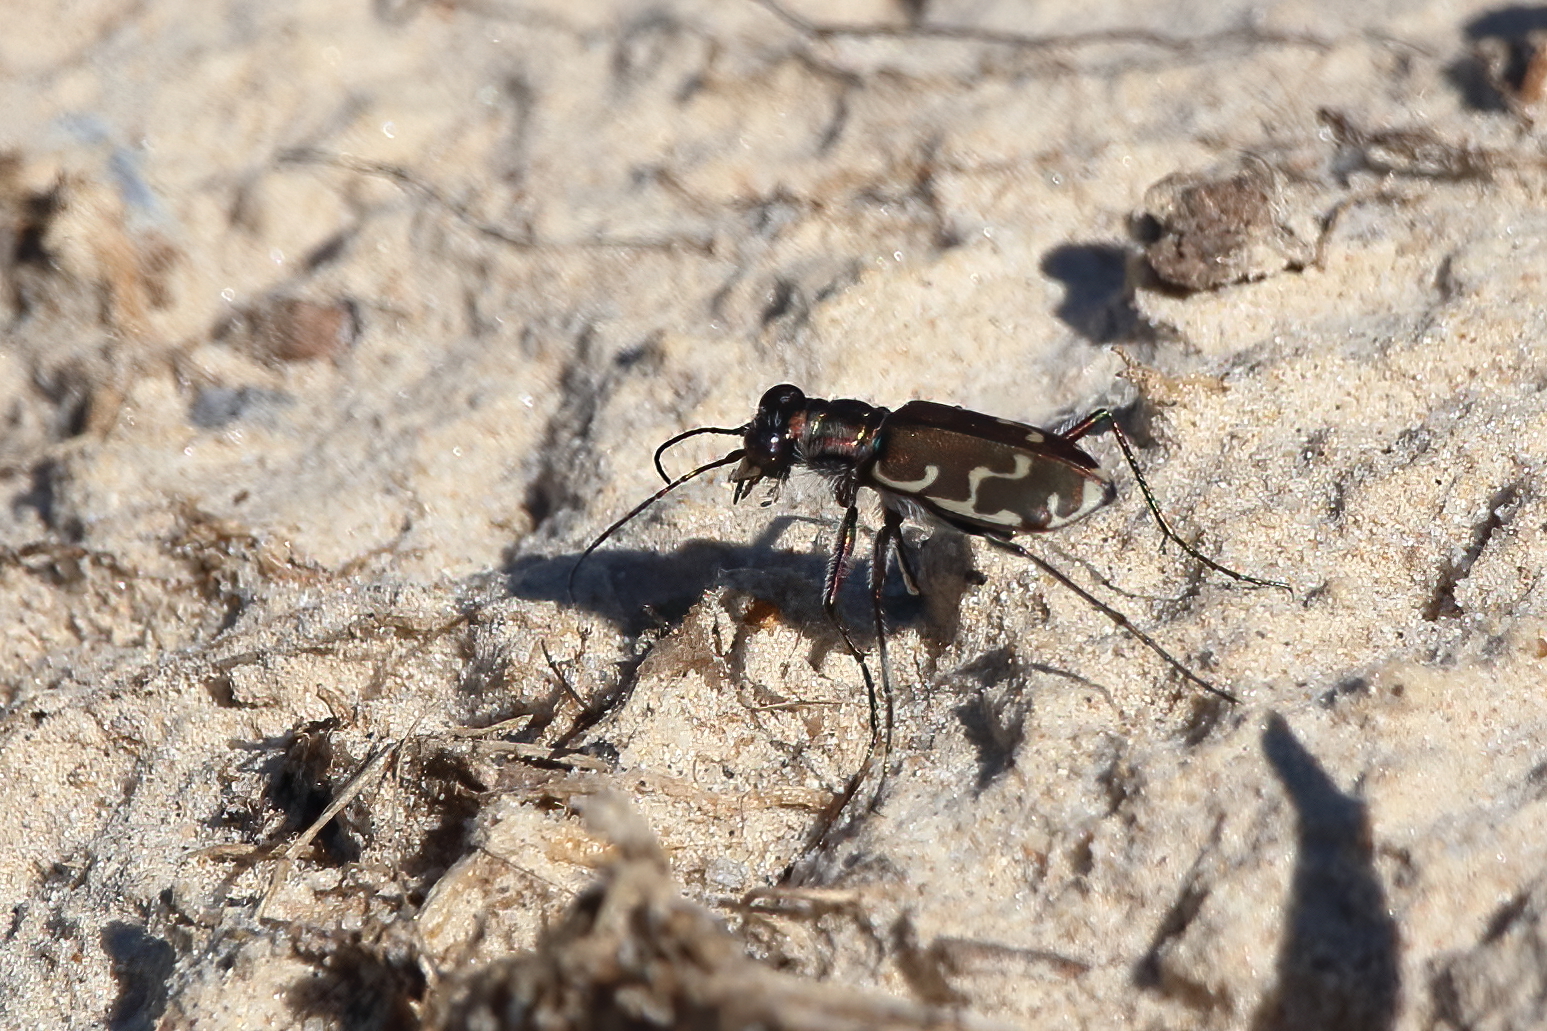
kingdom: Animalia
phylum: Arthropoda
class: Insecta
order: Coleoptera
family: Carabidae
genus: Cicindela
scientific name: Cicindela repanda
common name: Bronzed tiger beetle
